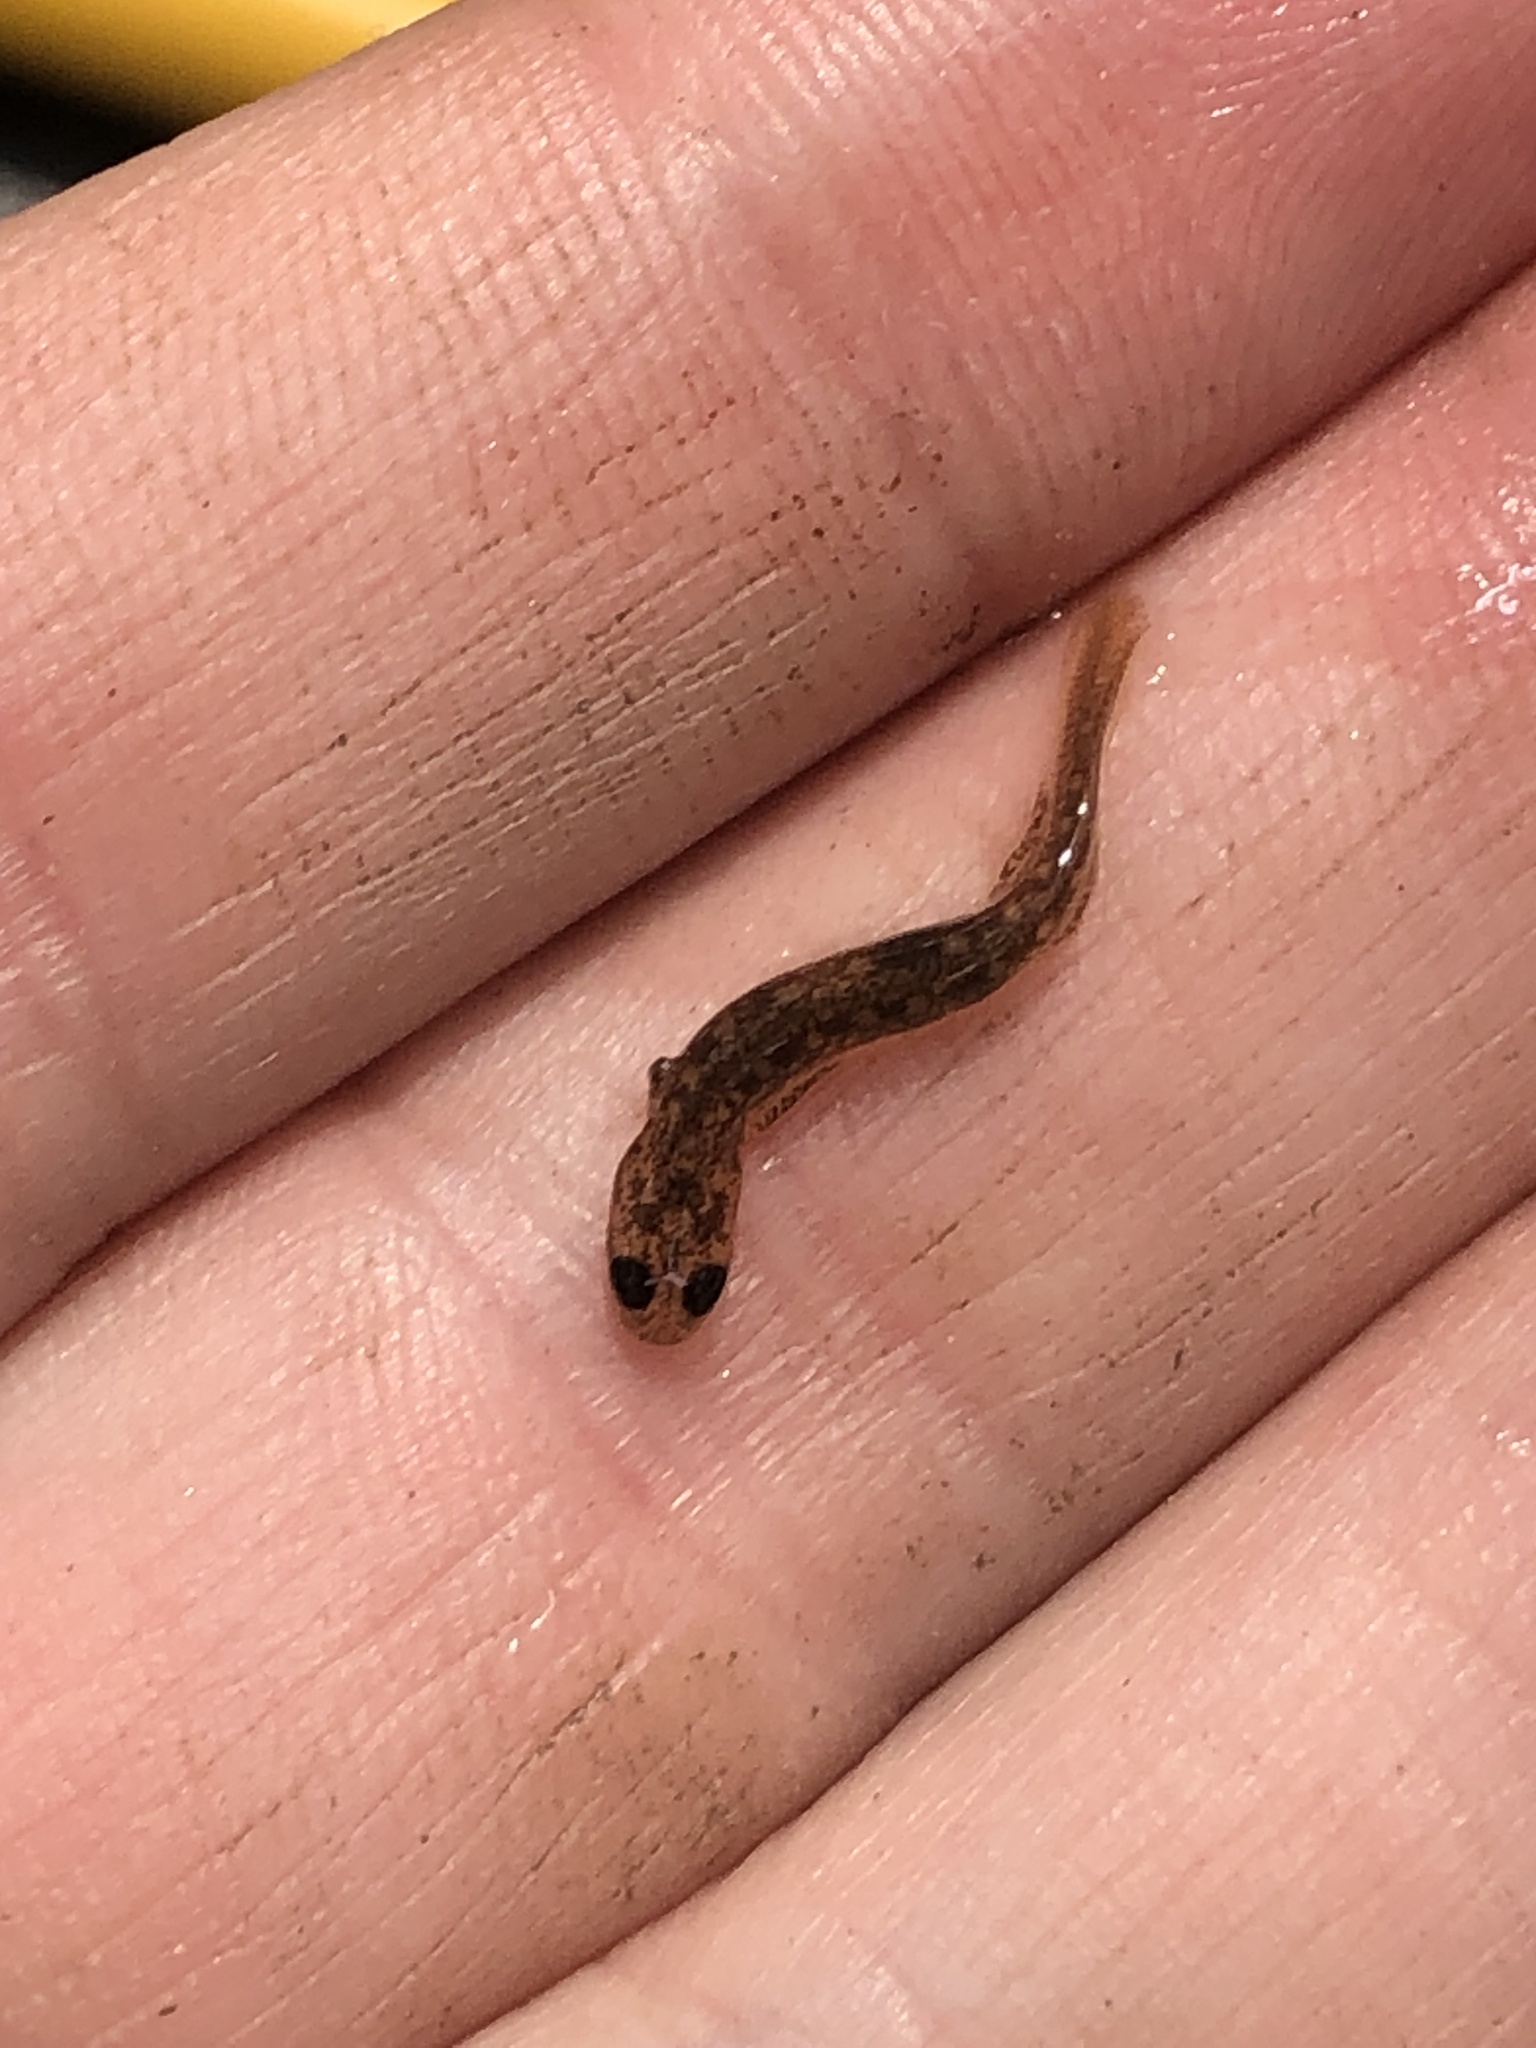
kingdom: Animalia
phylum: Chordata
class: Amphibia
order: Caudata
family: Plethodontidae
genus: Eurycea
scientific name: Eurycea bislineata
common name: Northern two-lined salamander
